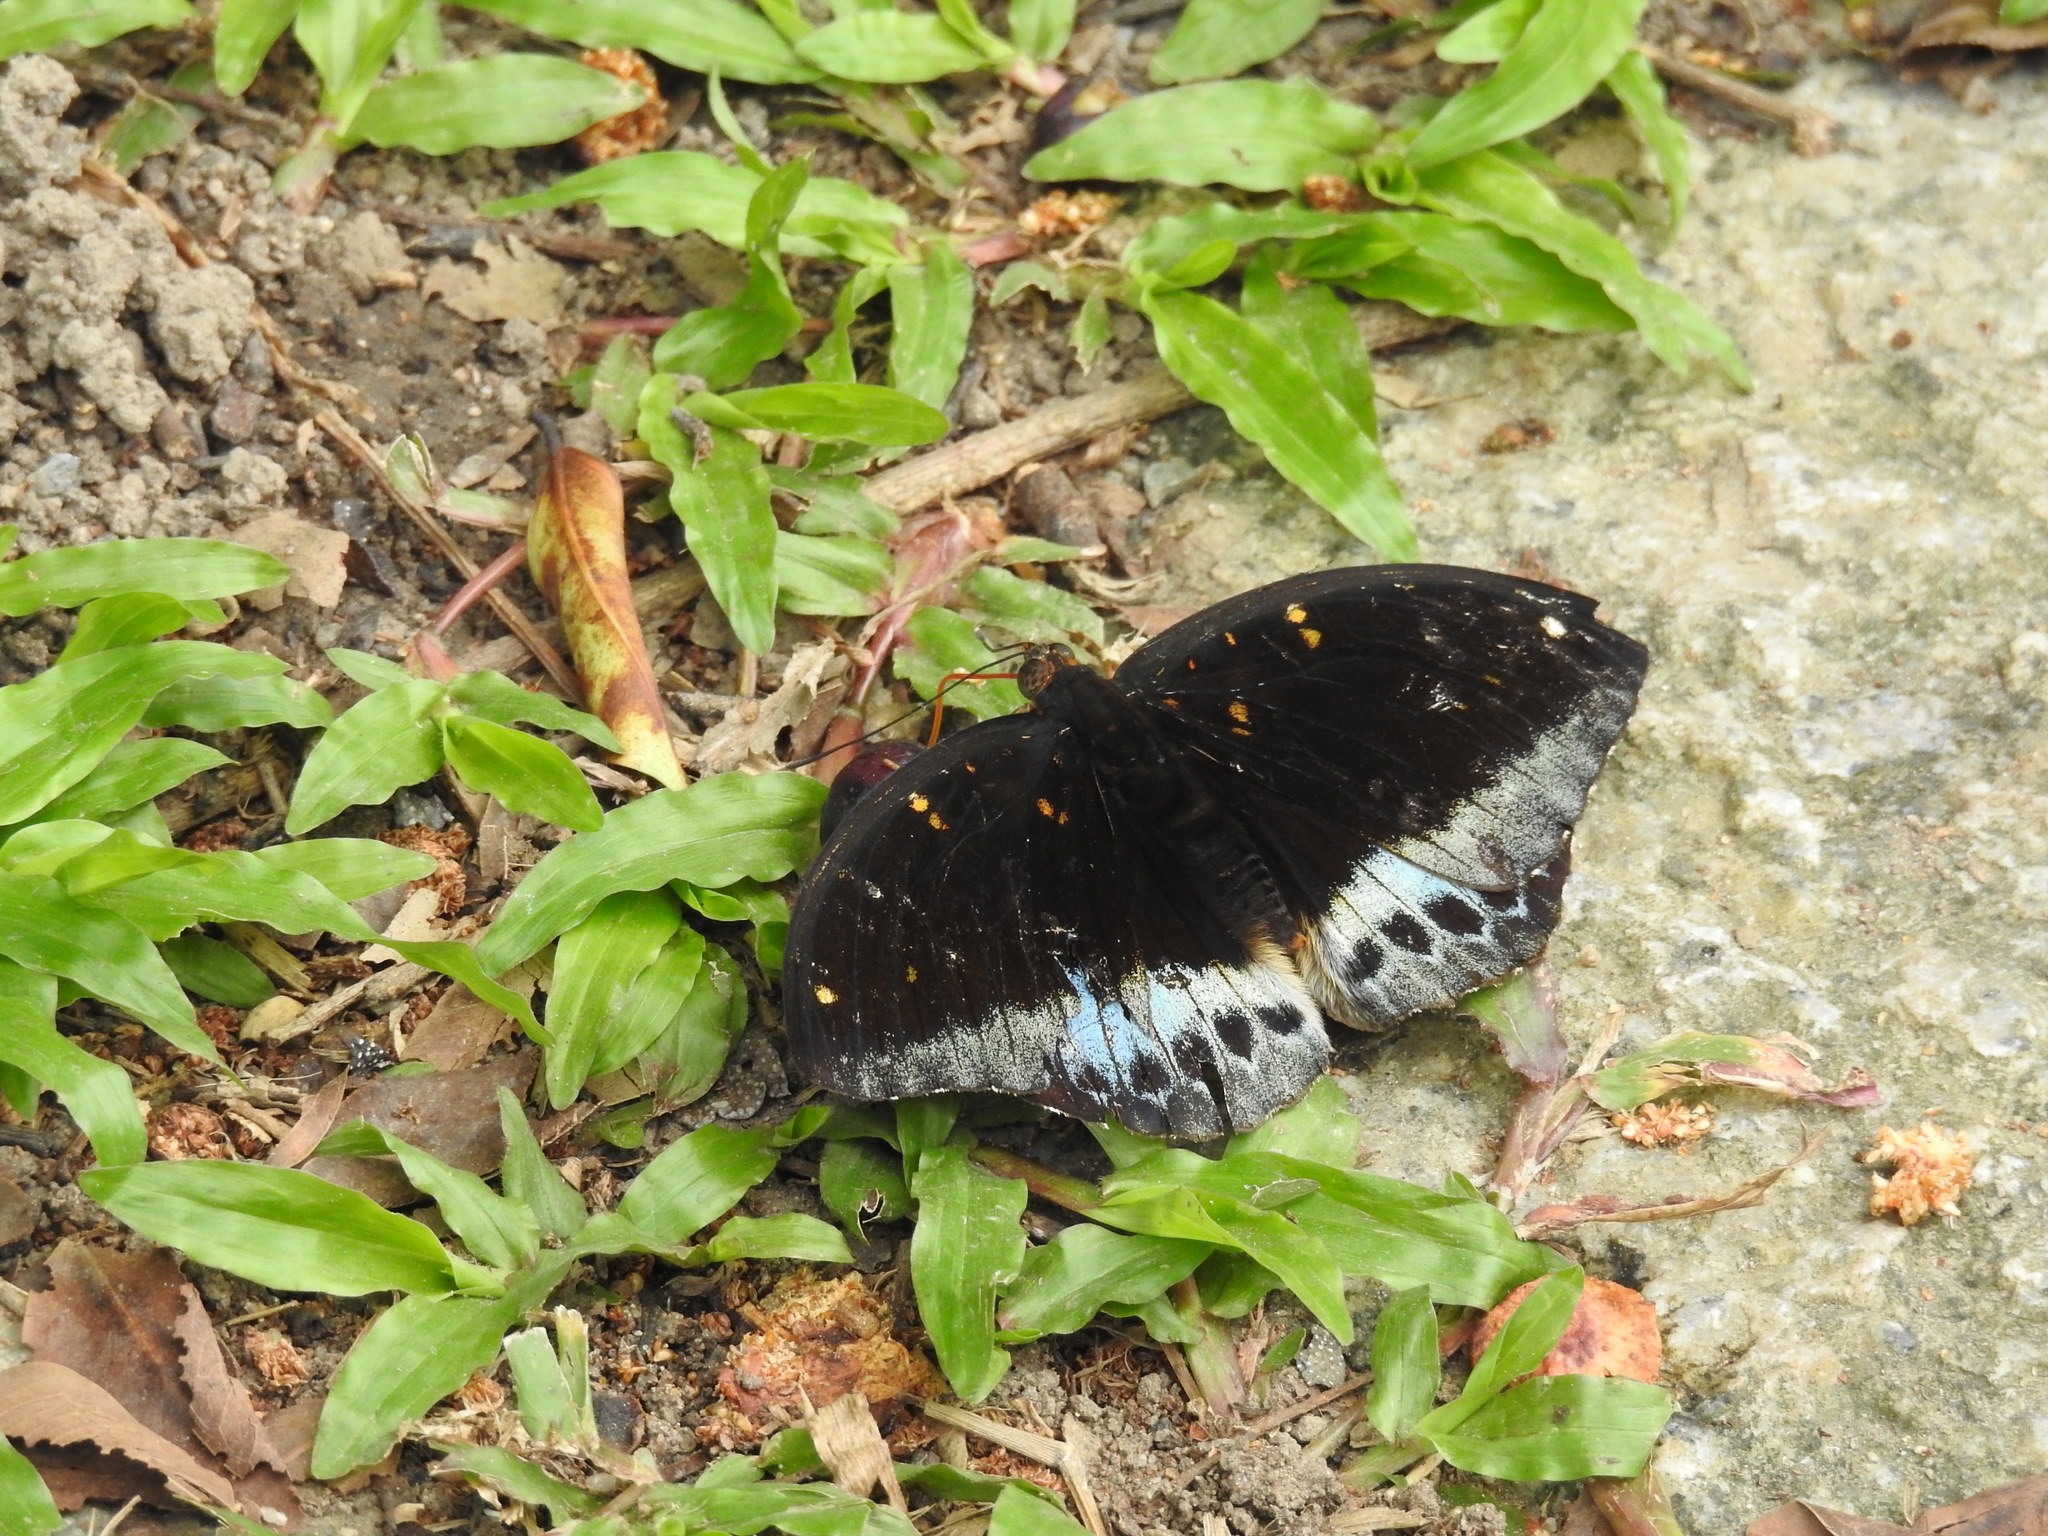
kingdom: Animalia
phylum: Arthropoda
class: Insecta
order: Lepidoptera
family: Nymphalidae
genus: Lexias
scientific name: Lexias pardalis
